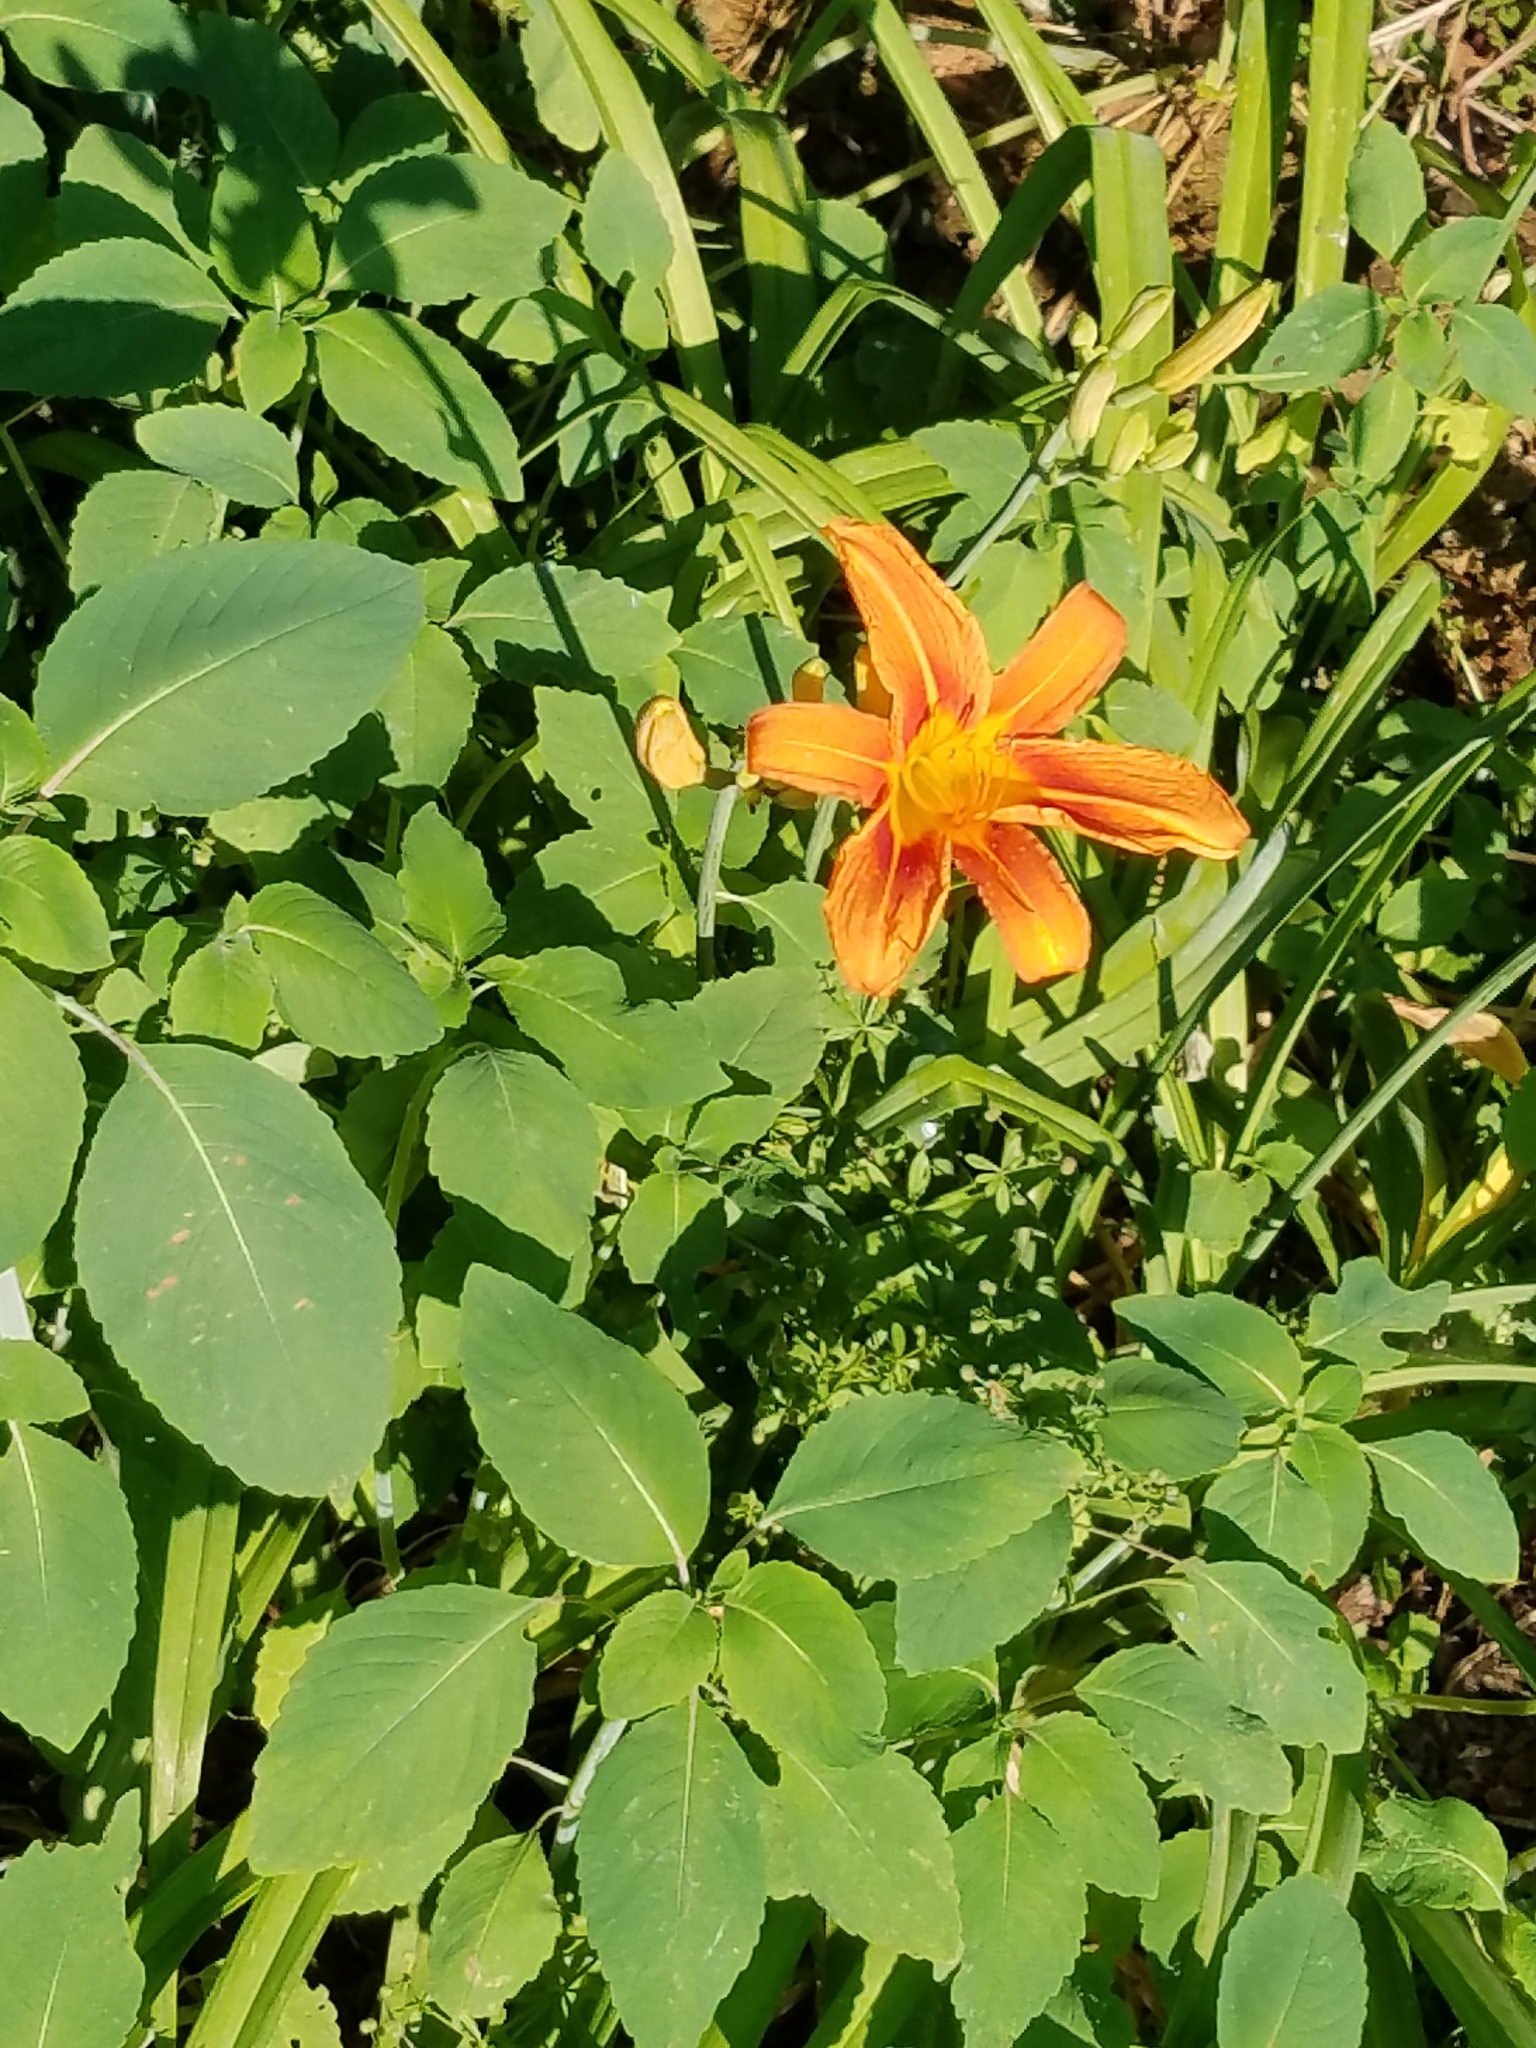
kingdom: Plantae
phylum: Tracheophyta
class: Liliopsida
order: Asparagales
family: Asphodelaceae
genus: Hemerocallis
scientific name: Hemerocallis fulva
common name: Orange day-lily
